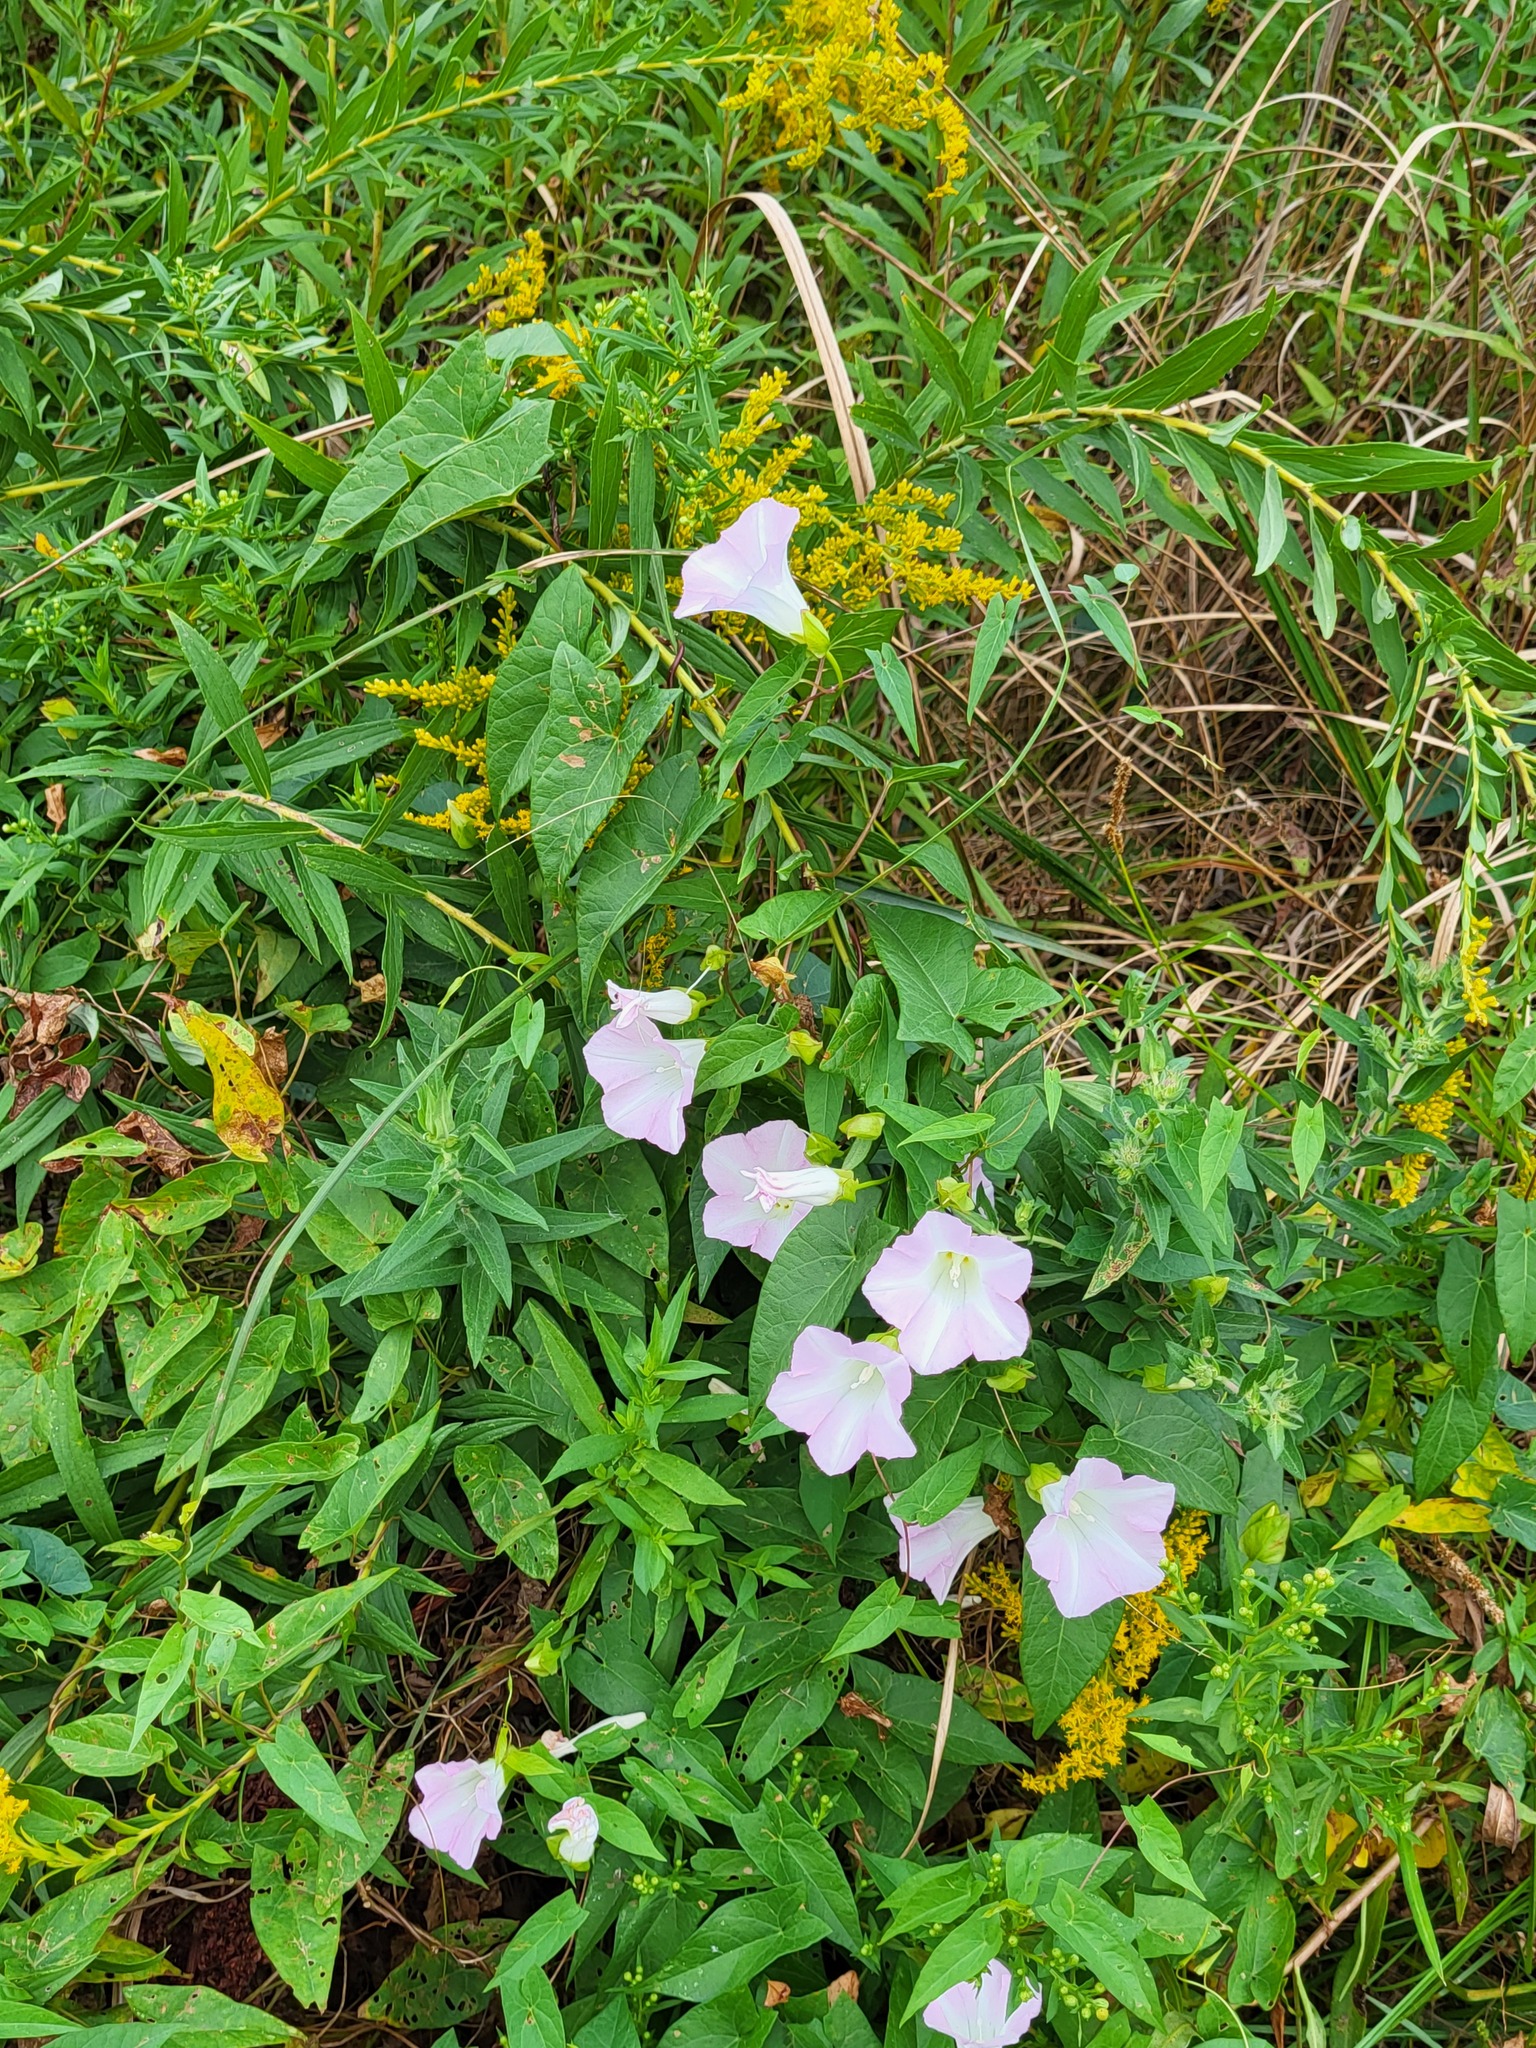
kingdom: Plantae
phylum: Tracheophyta
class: Magnoliopsida
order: Solanales
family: Convolvulaceae
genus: Calystegia
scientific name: Calystegia sepium
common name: Hedge bindweed
